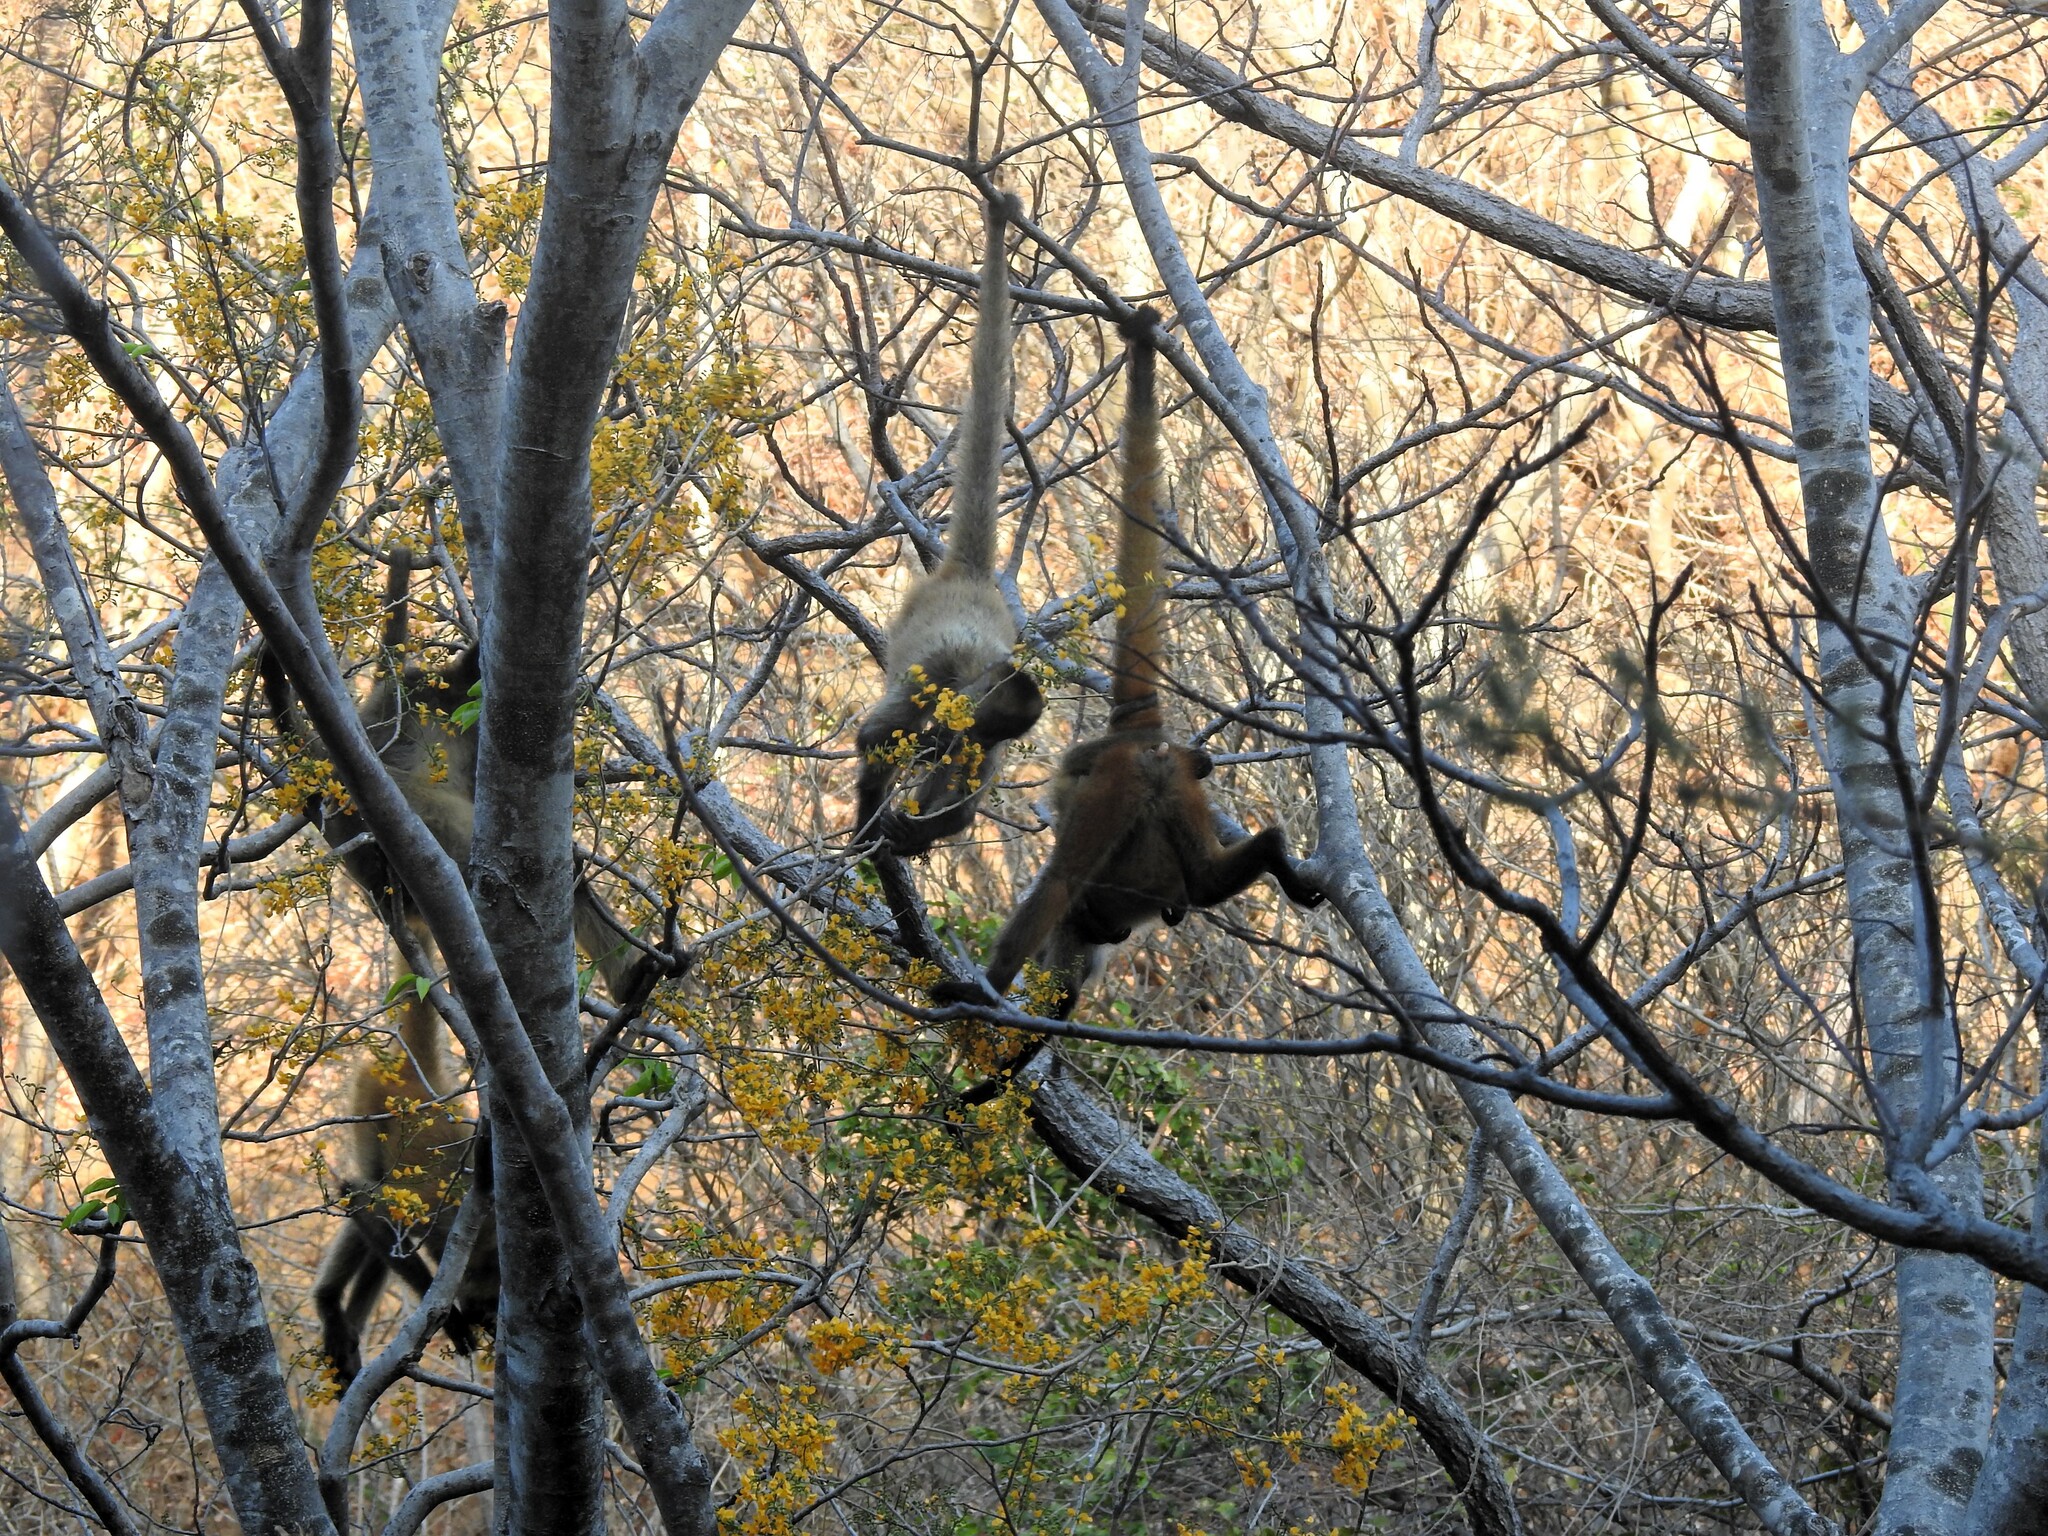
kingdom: Animalia
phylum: Chordata
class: Mammalia
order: Primates
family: Atelidae
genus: Ateles
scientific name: Ateles geoffroyi
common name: Black-handed spider monkey
